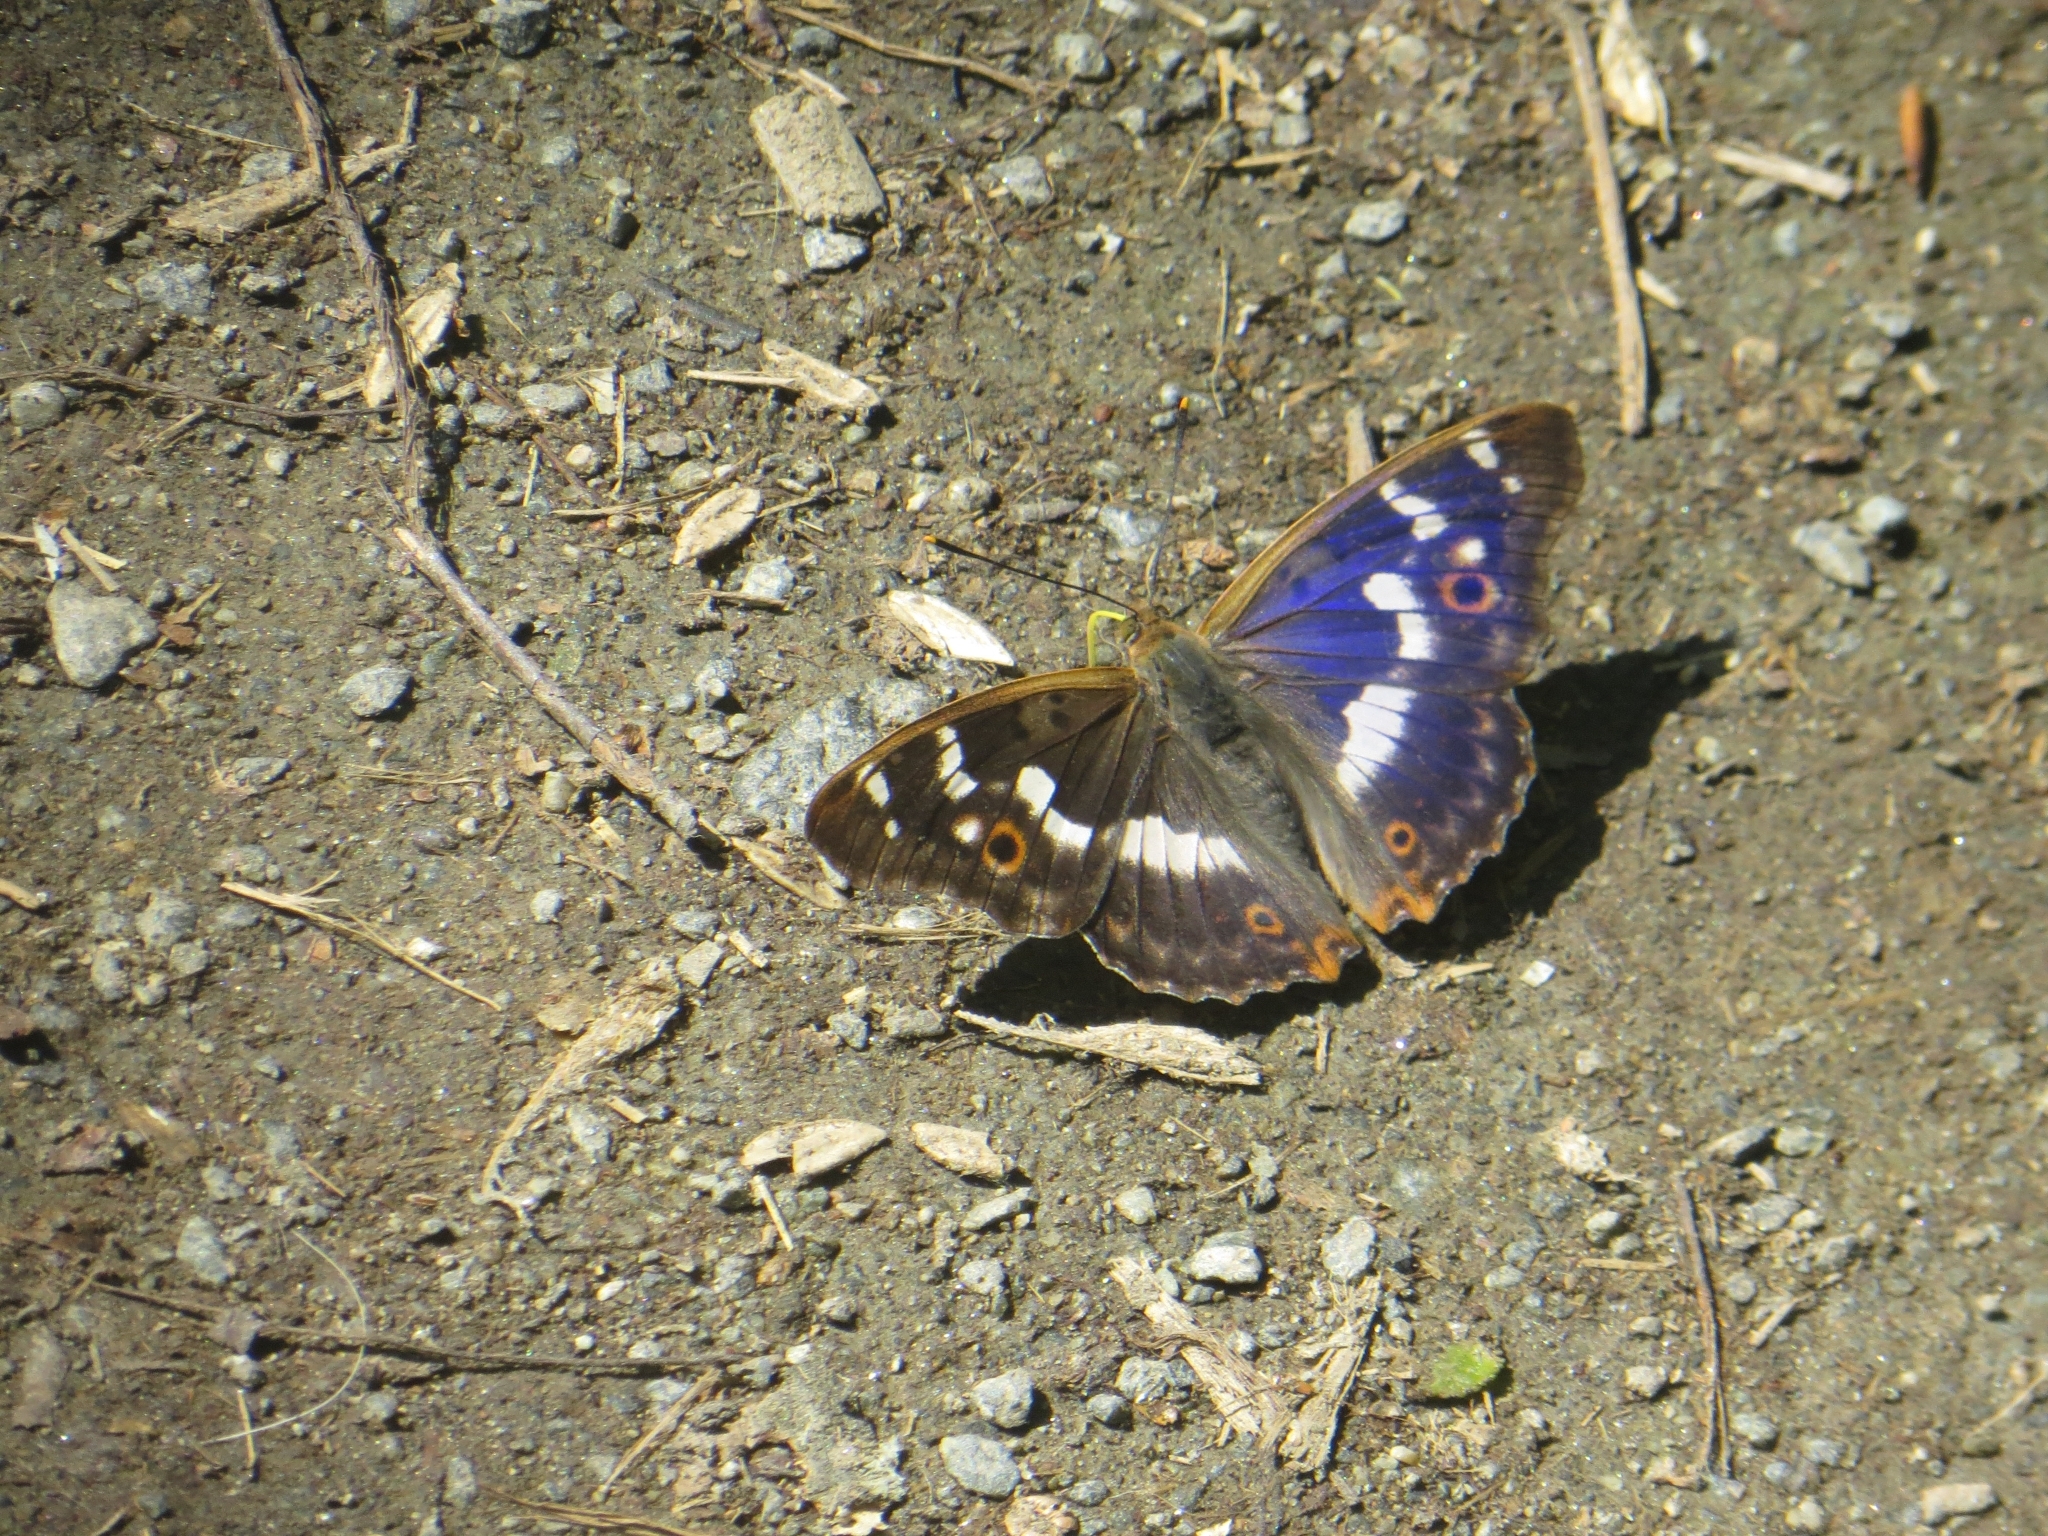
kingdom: Animalia
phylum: Arthropoda
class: Insecta
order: Lepidoptera
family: Nymphalidae
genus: Apatura
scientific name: Apatura ilia
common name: Lesser purple emperor
